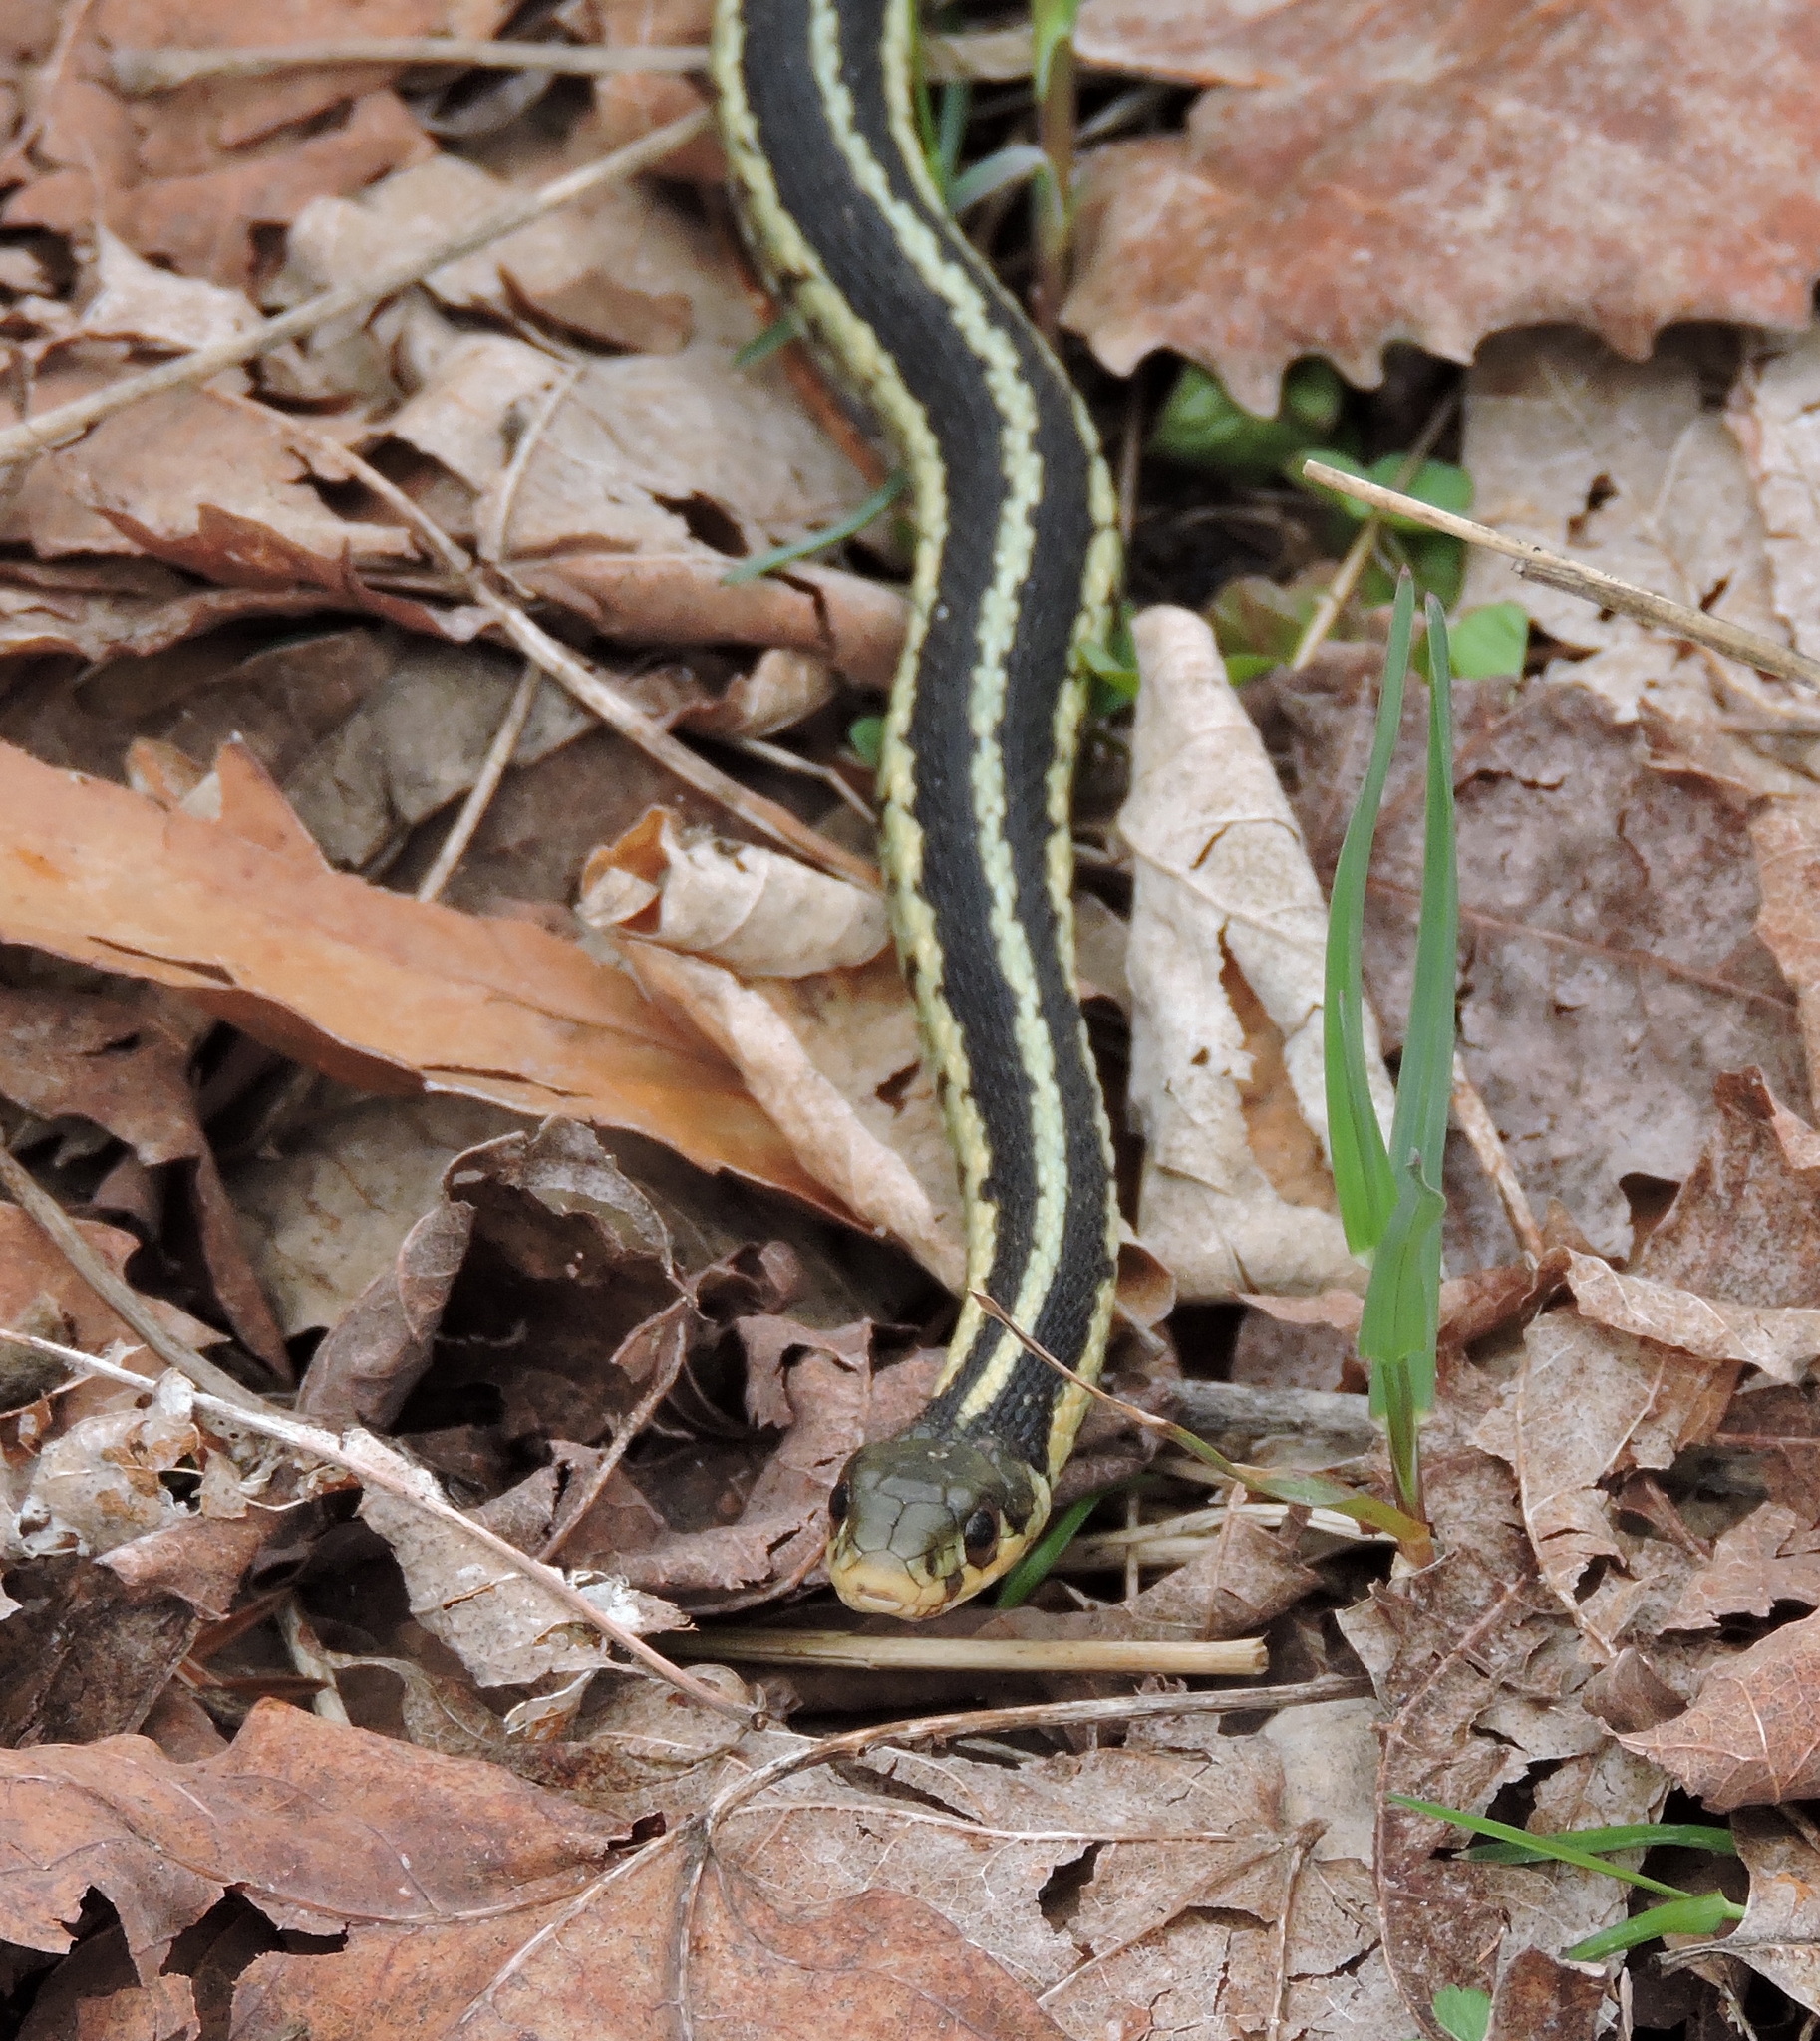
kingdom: Animalia
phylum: Chordata
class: Squamata
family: Colubridae
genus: Thamnophis
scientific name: Thamnophis sirtalis
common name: Common garter snake
